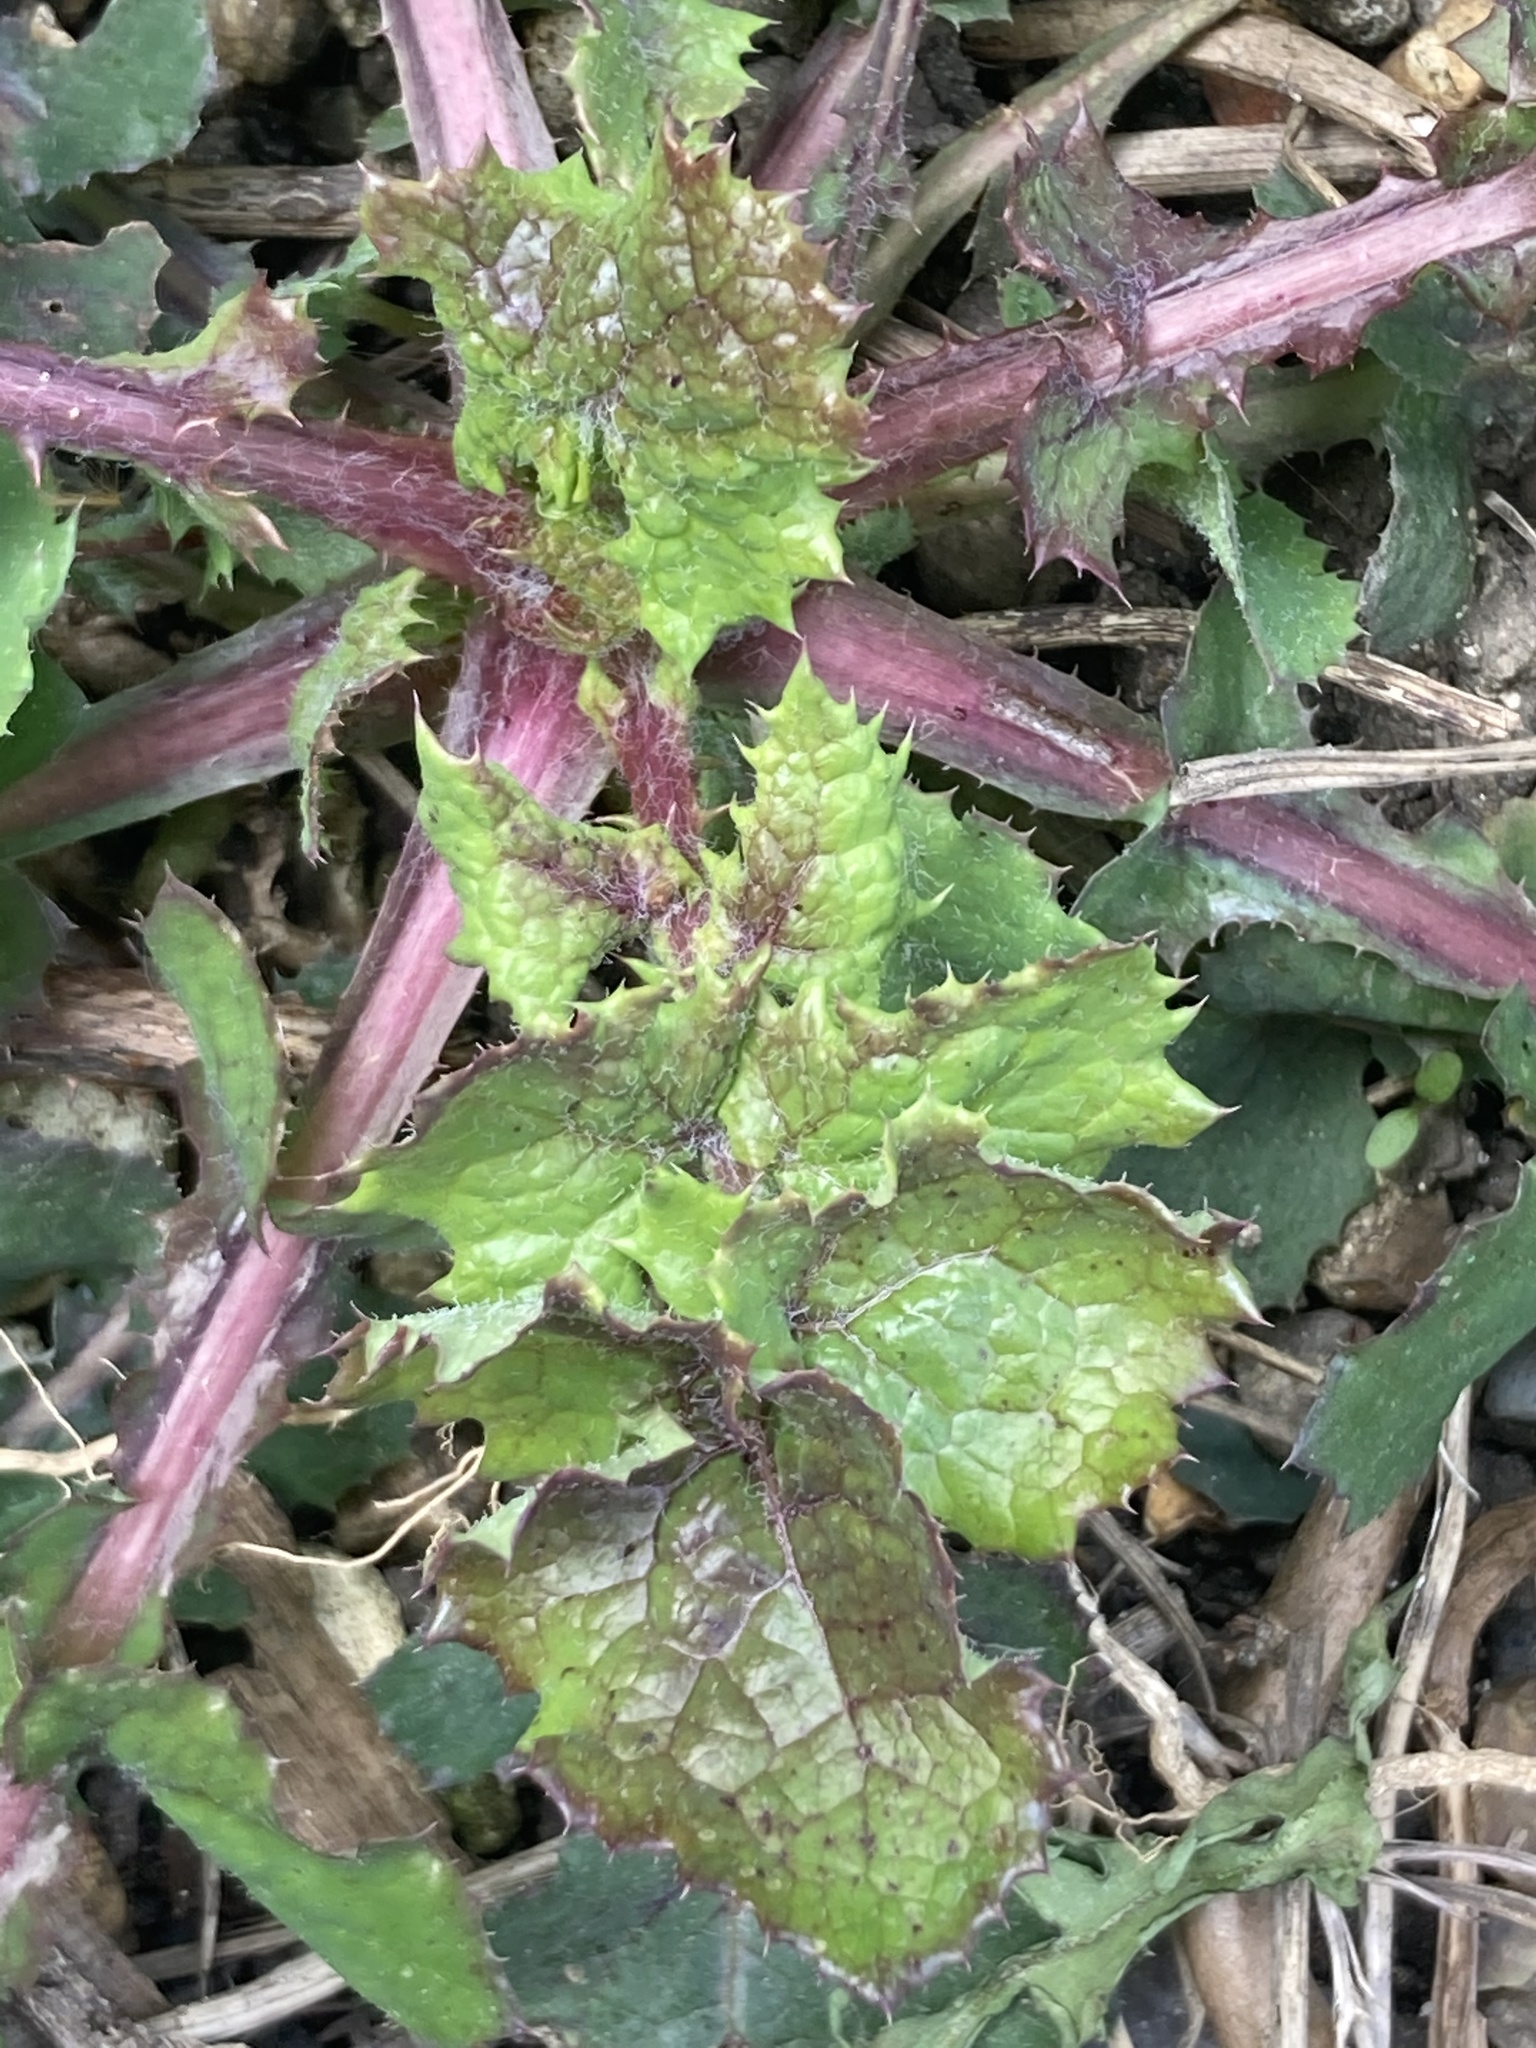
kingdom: Plantae
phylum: Tracheophyta
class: Magnoliopsida
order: Asterales
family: Asteraceae
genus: Sonchus
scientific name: Sonchus oleraceus
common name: Common sowthistle
